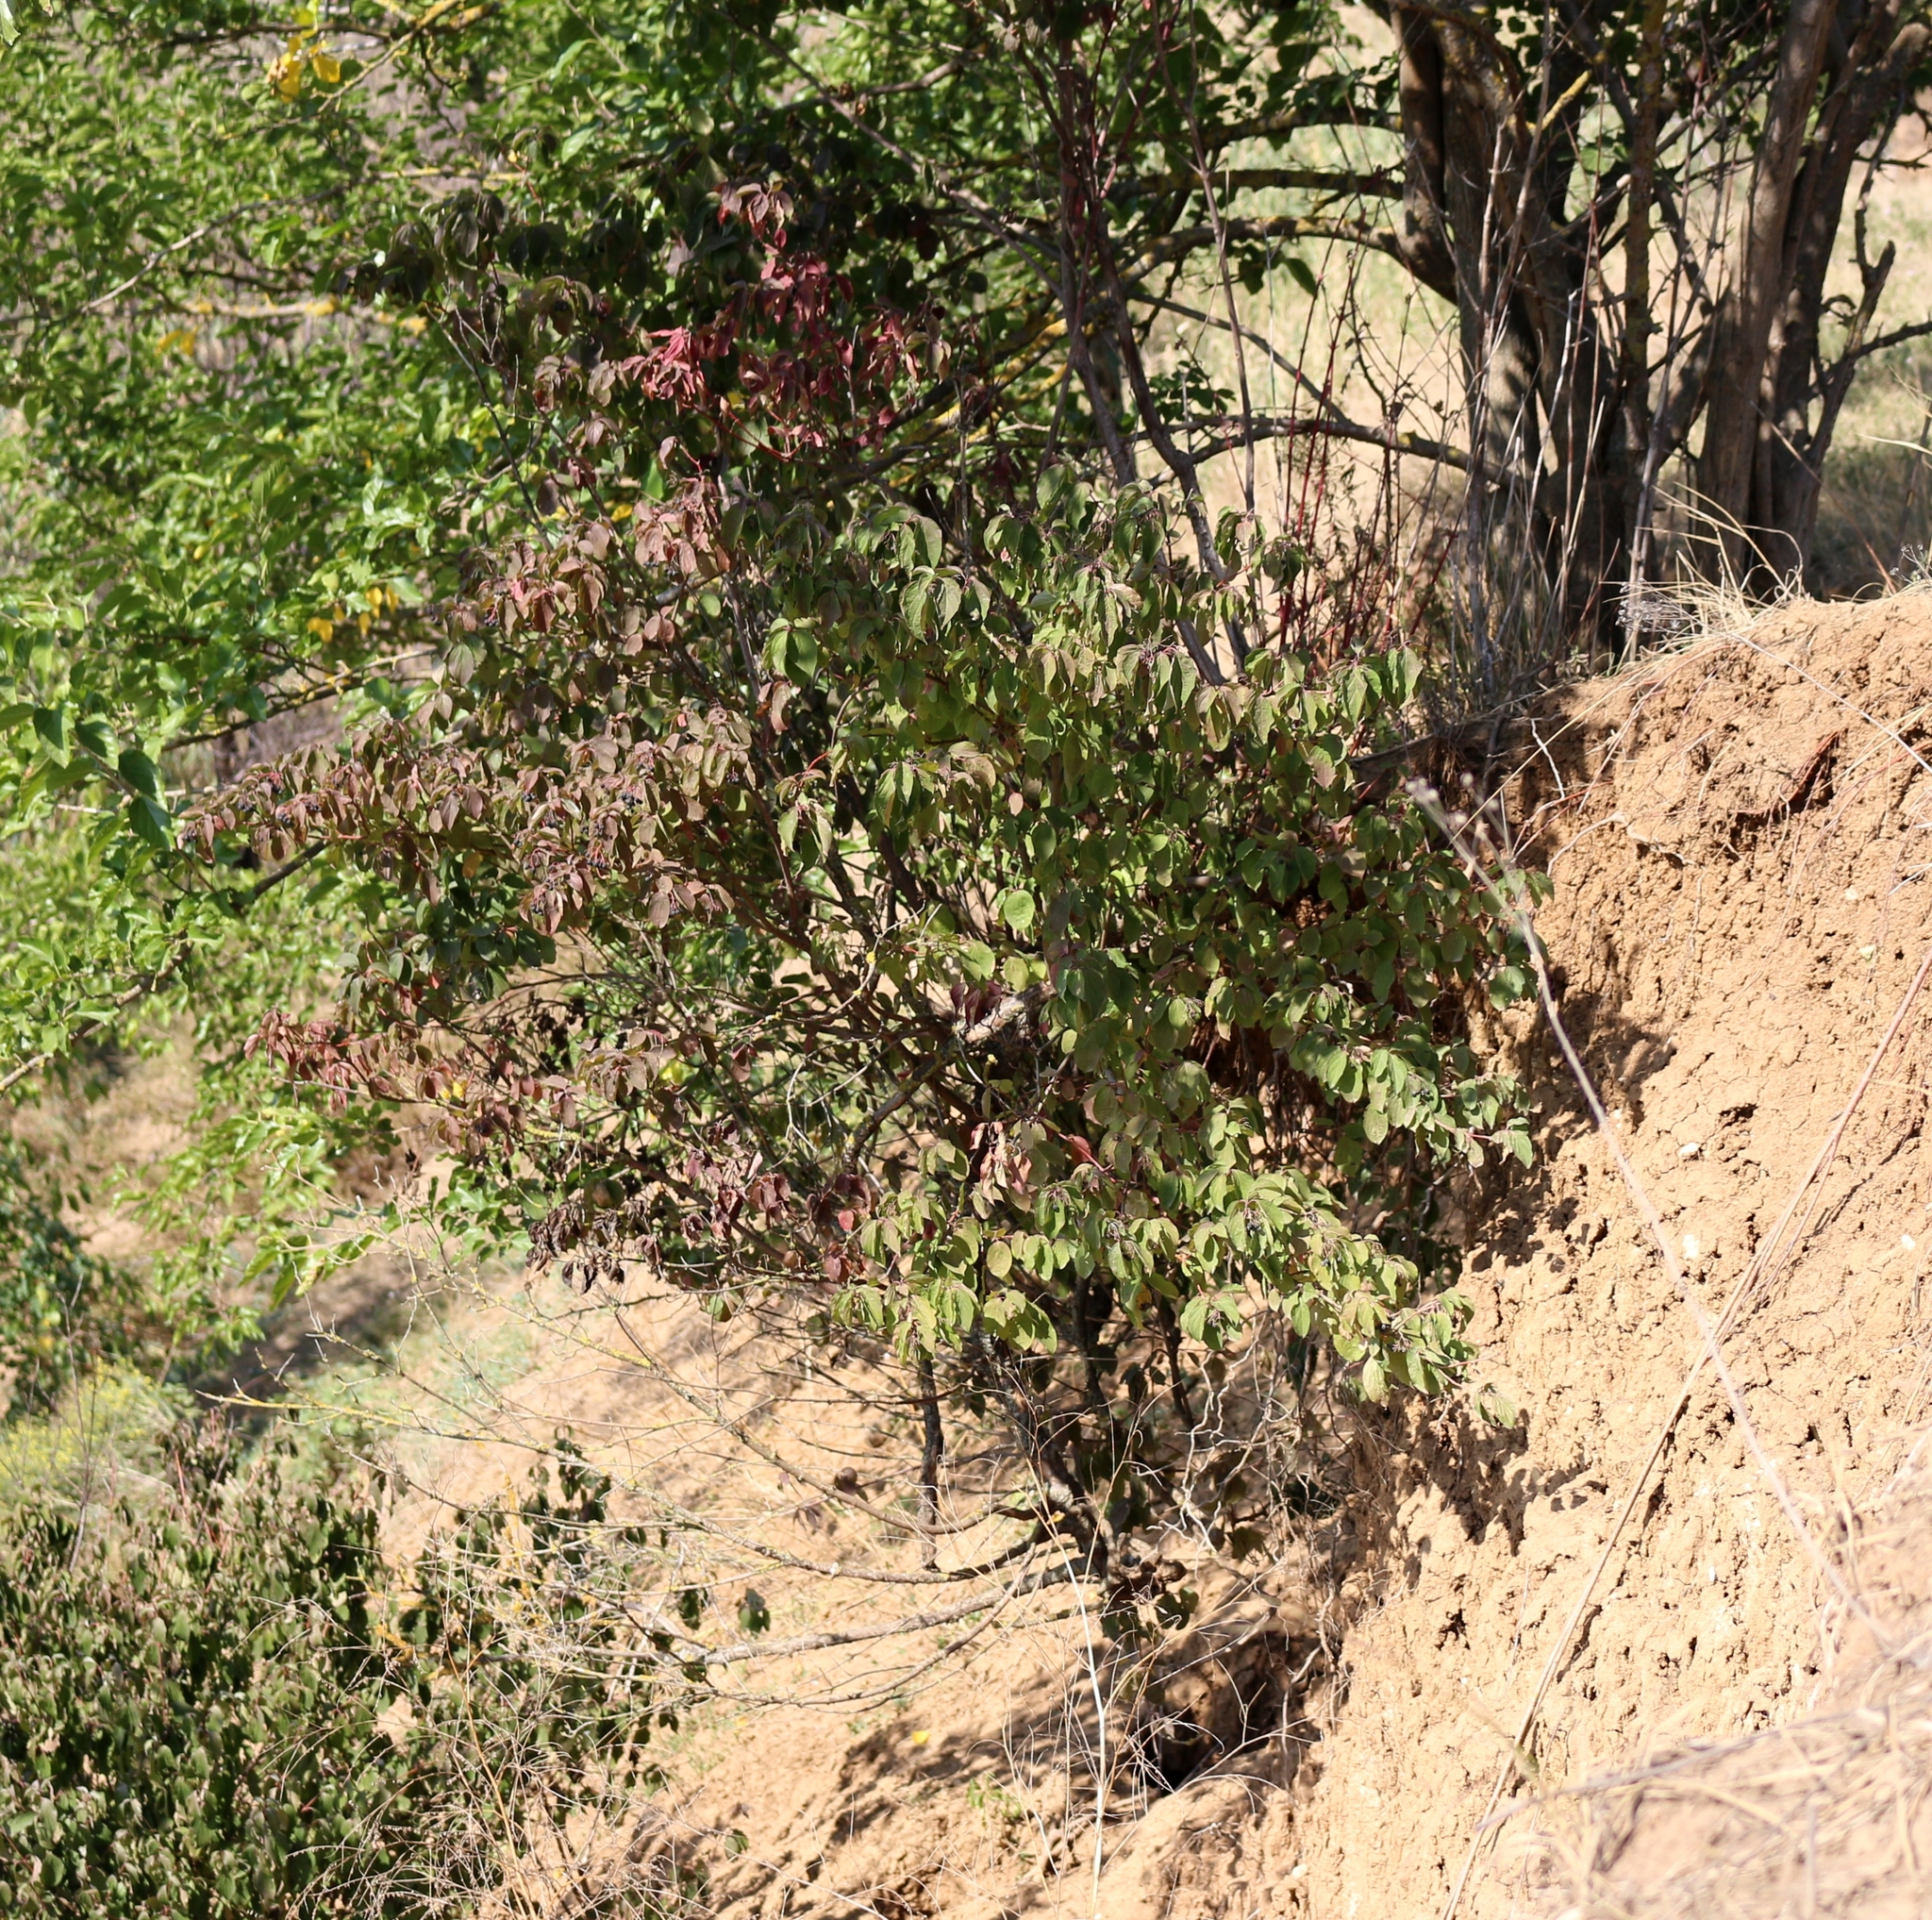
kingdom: Plantae
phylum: Tracheophyta
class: Magnoliopsida
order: Cornales
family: Cornaceae
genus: Cornus
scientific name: Cornus sanguinea
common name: Dogwood
